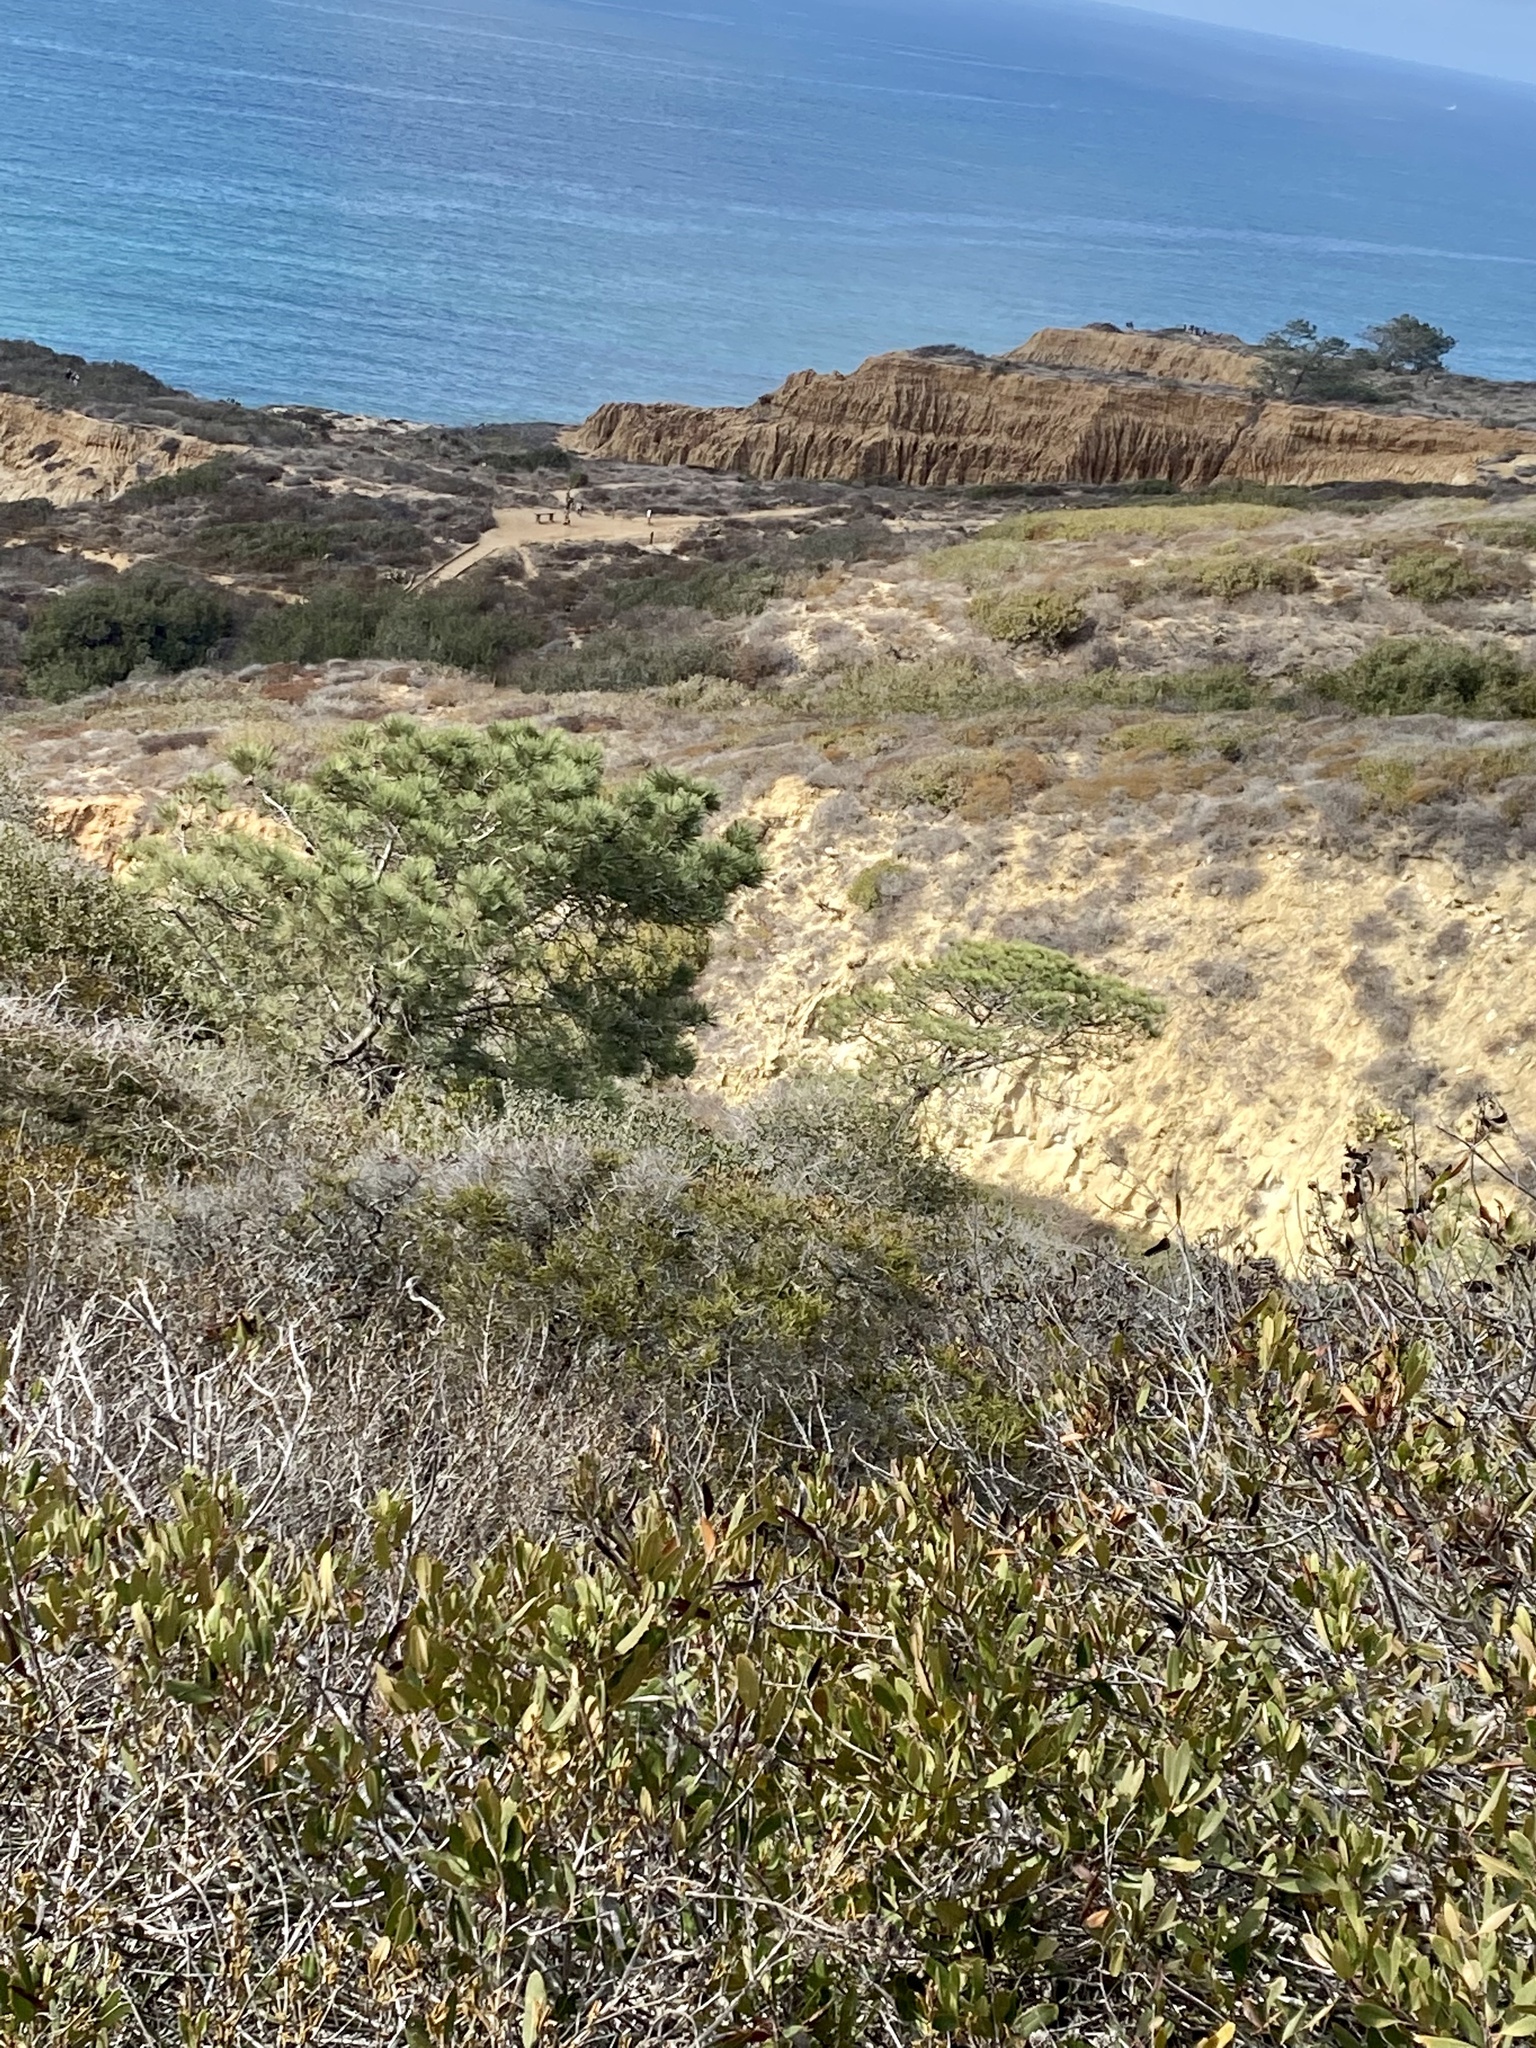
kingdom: Plantae
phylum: Tracheophyta
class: Pinopsida
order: Pinales
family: Pinaceae
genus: Pinus
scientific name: Pinus torreyana
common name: Torrey pine
